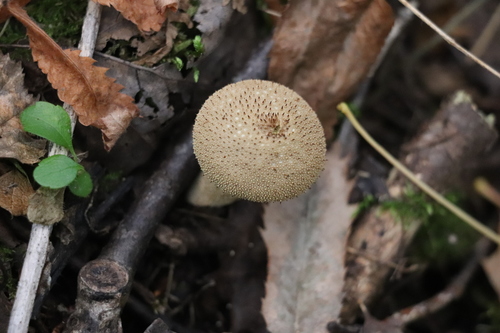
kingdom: Fungi
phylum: Basidiomycota
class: Agaricomycetes
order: Agaricales
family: Lycoperdaceae
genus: Lycoperdon
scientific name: Lycoperdon perlatum
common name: Common puffball
